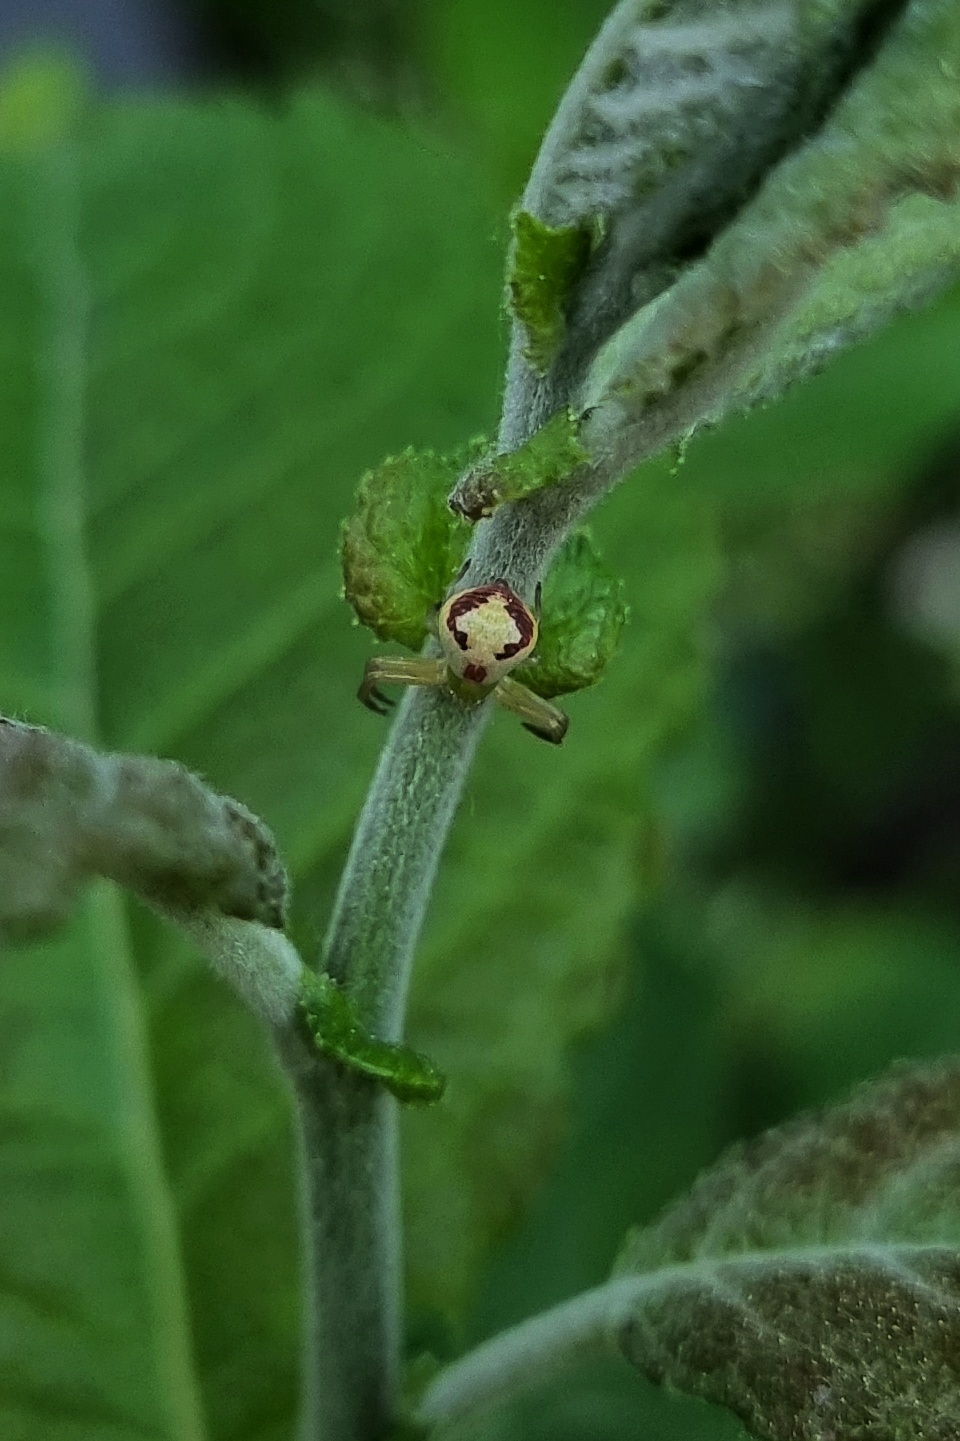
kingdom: Animalia
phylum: Arthropoda
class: Arachnida
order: Araneae
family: Thomisidae
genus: Ebrechtella
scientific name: Ebrechtella tricuspidata
